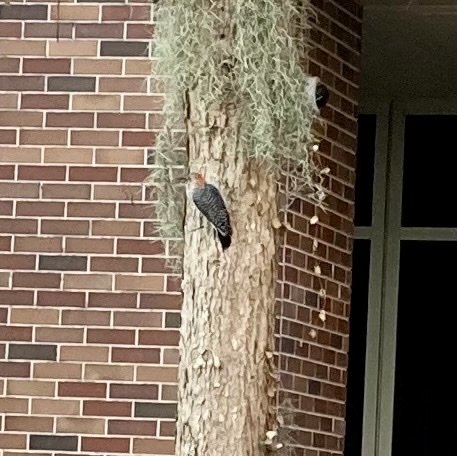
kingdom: Animalia
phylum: Chordata
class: Aves
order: Piciformes
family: Picidae
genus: Melanerpes
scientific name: Melanerpes carolinus
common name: Red-bellied woodpecker
